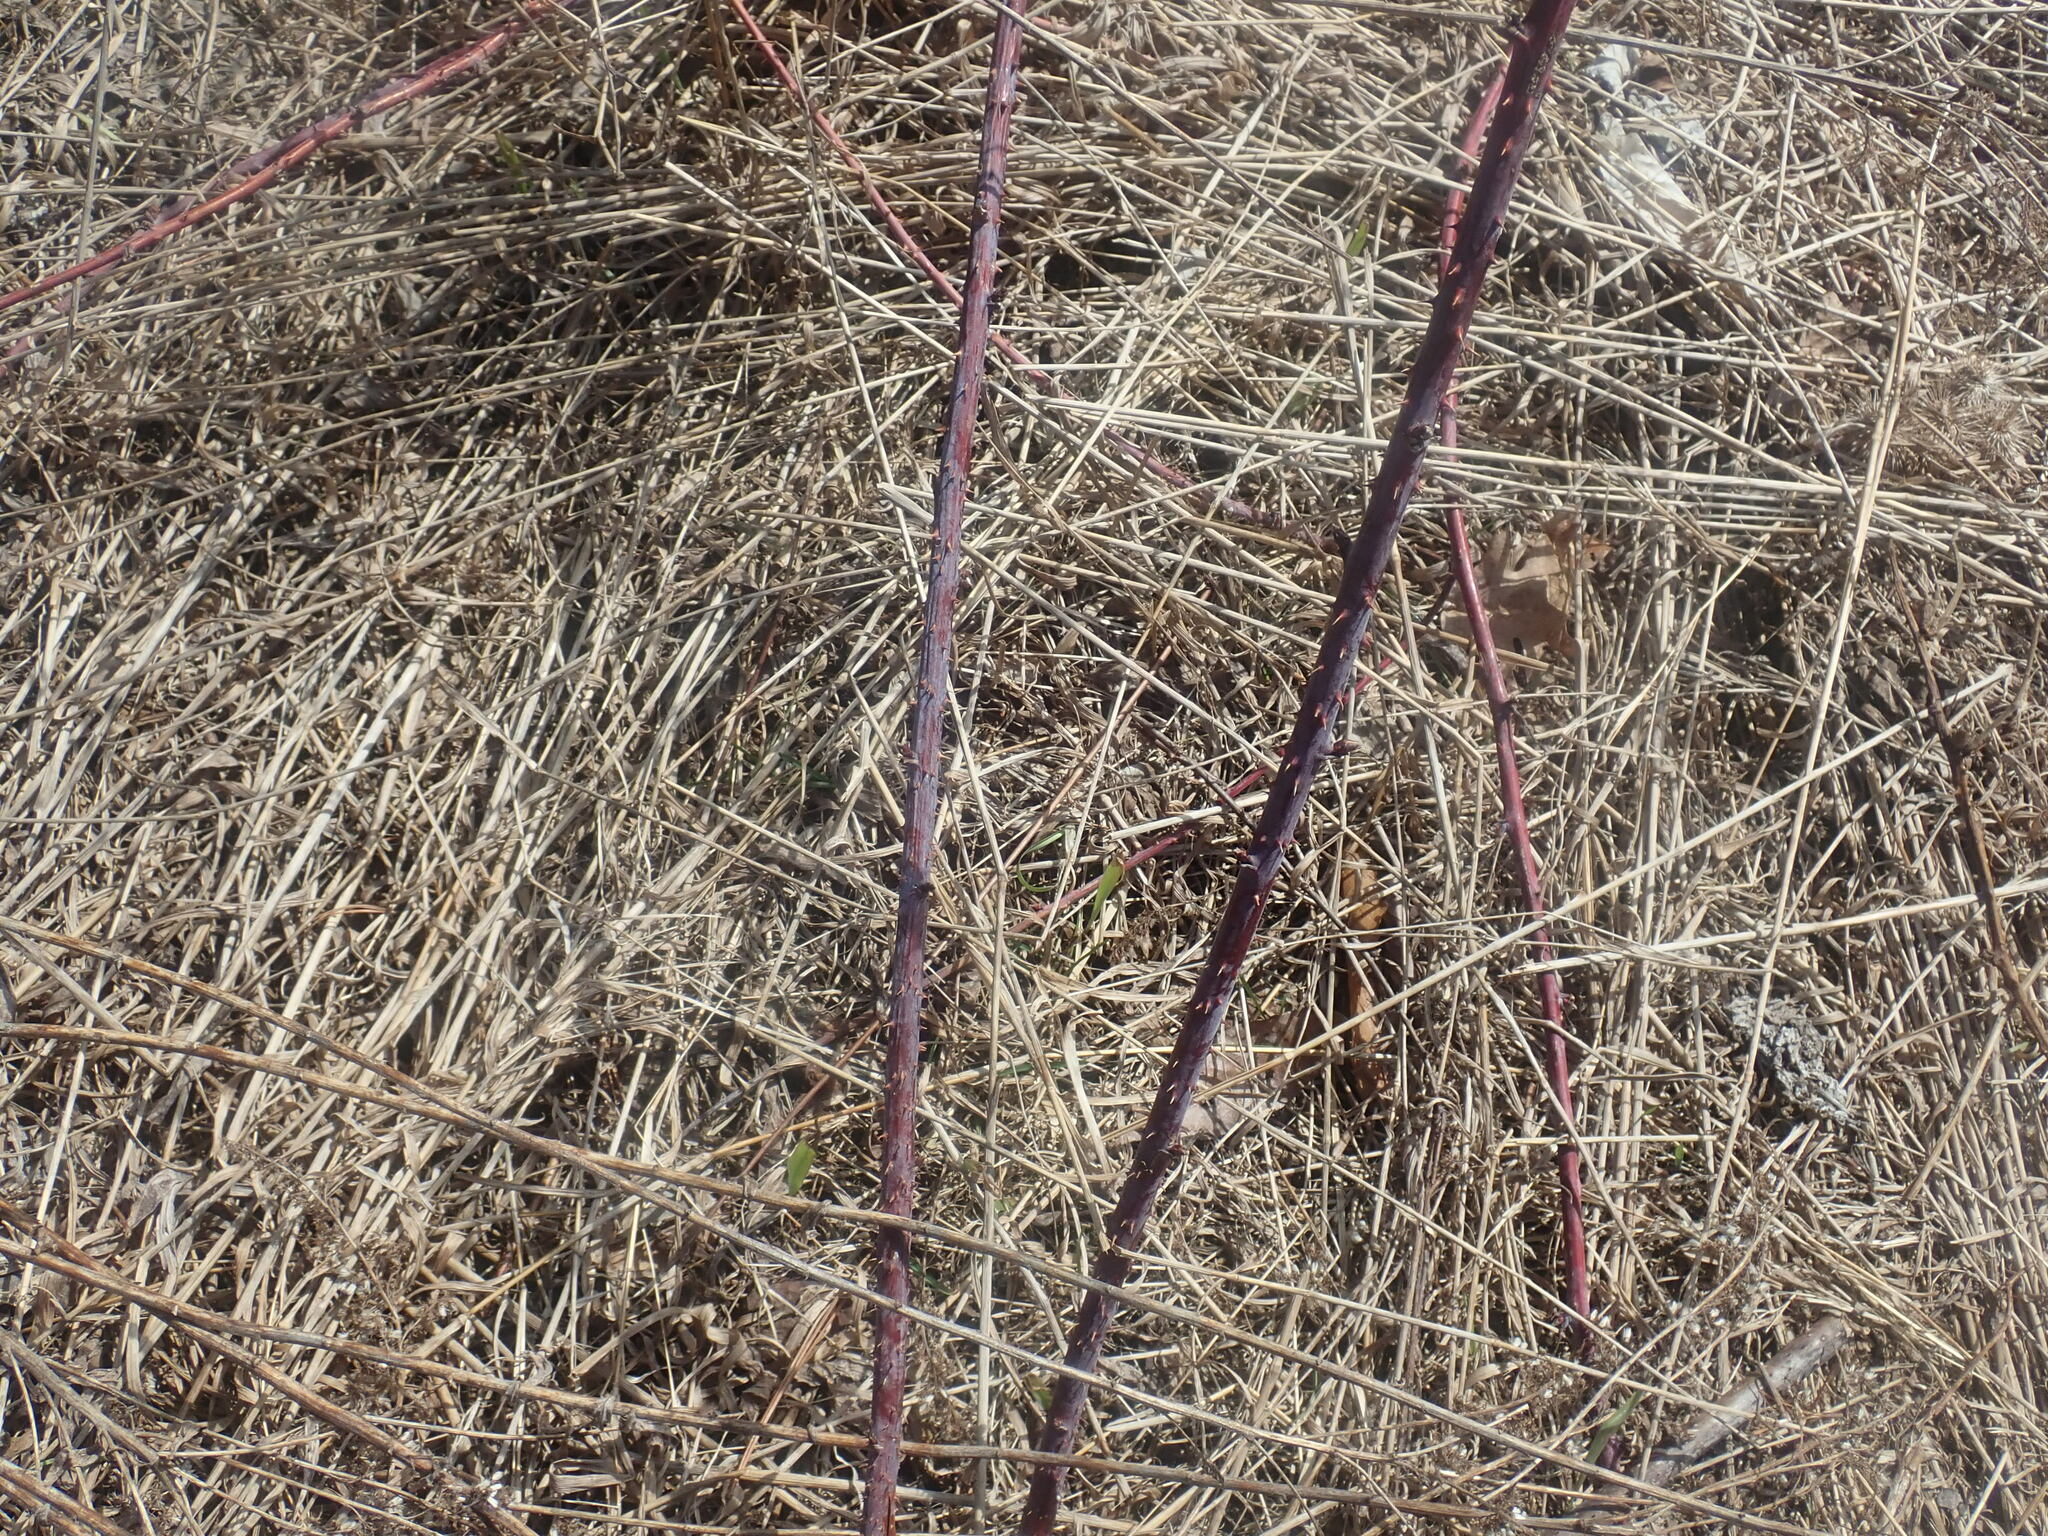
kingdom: Plantae
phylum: Tracheophyta
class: Magnoliopsida
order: Rosales
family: Rosaceae
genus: Rubus
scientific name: Rubus occidentalis
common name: Black raspberry
